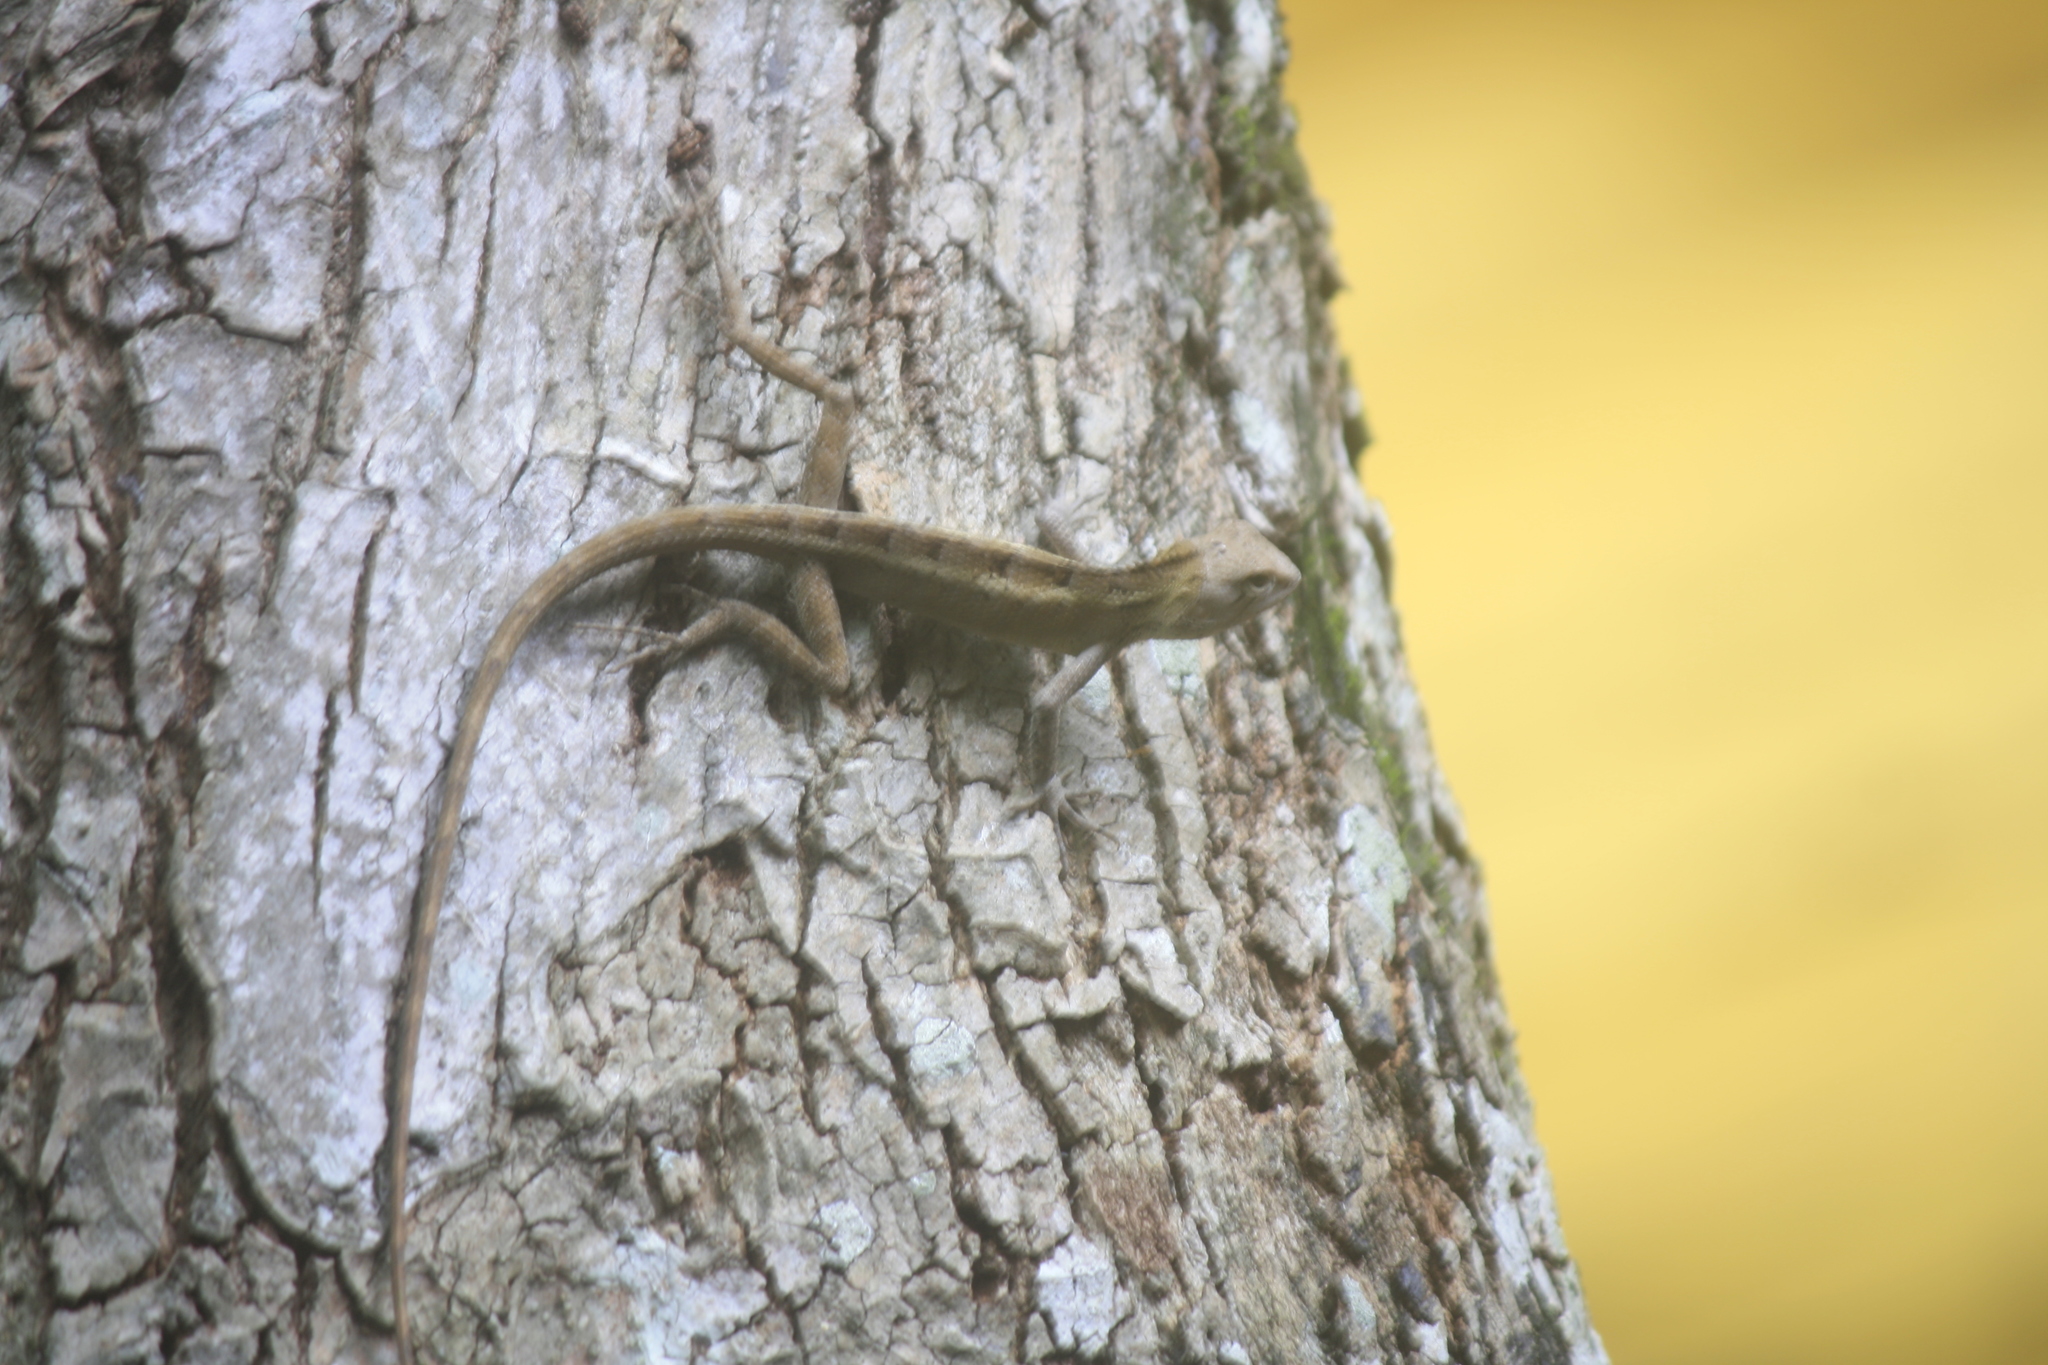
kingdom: Animalia
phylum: Chordata
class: Squamata
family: Agamidae
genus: Calotes
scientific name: Calotes versicolor
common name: Oriental garden lizard
